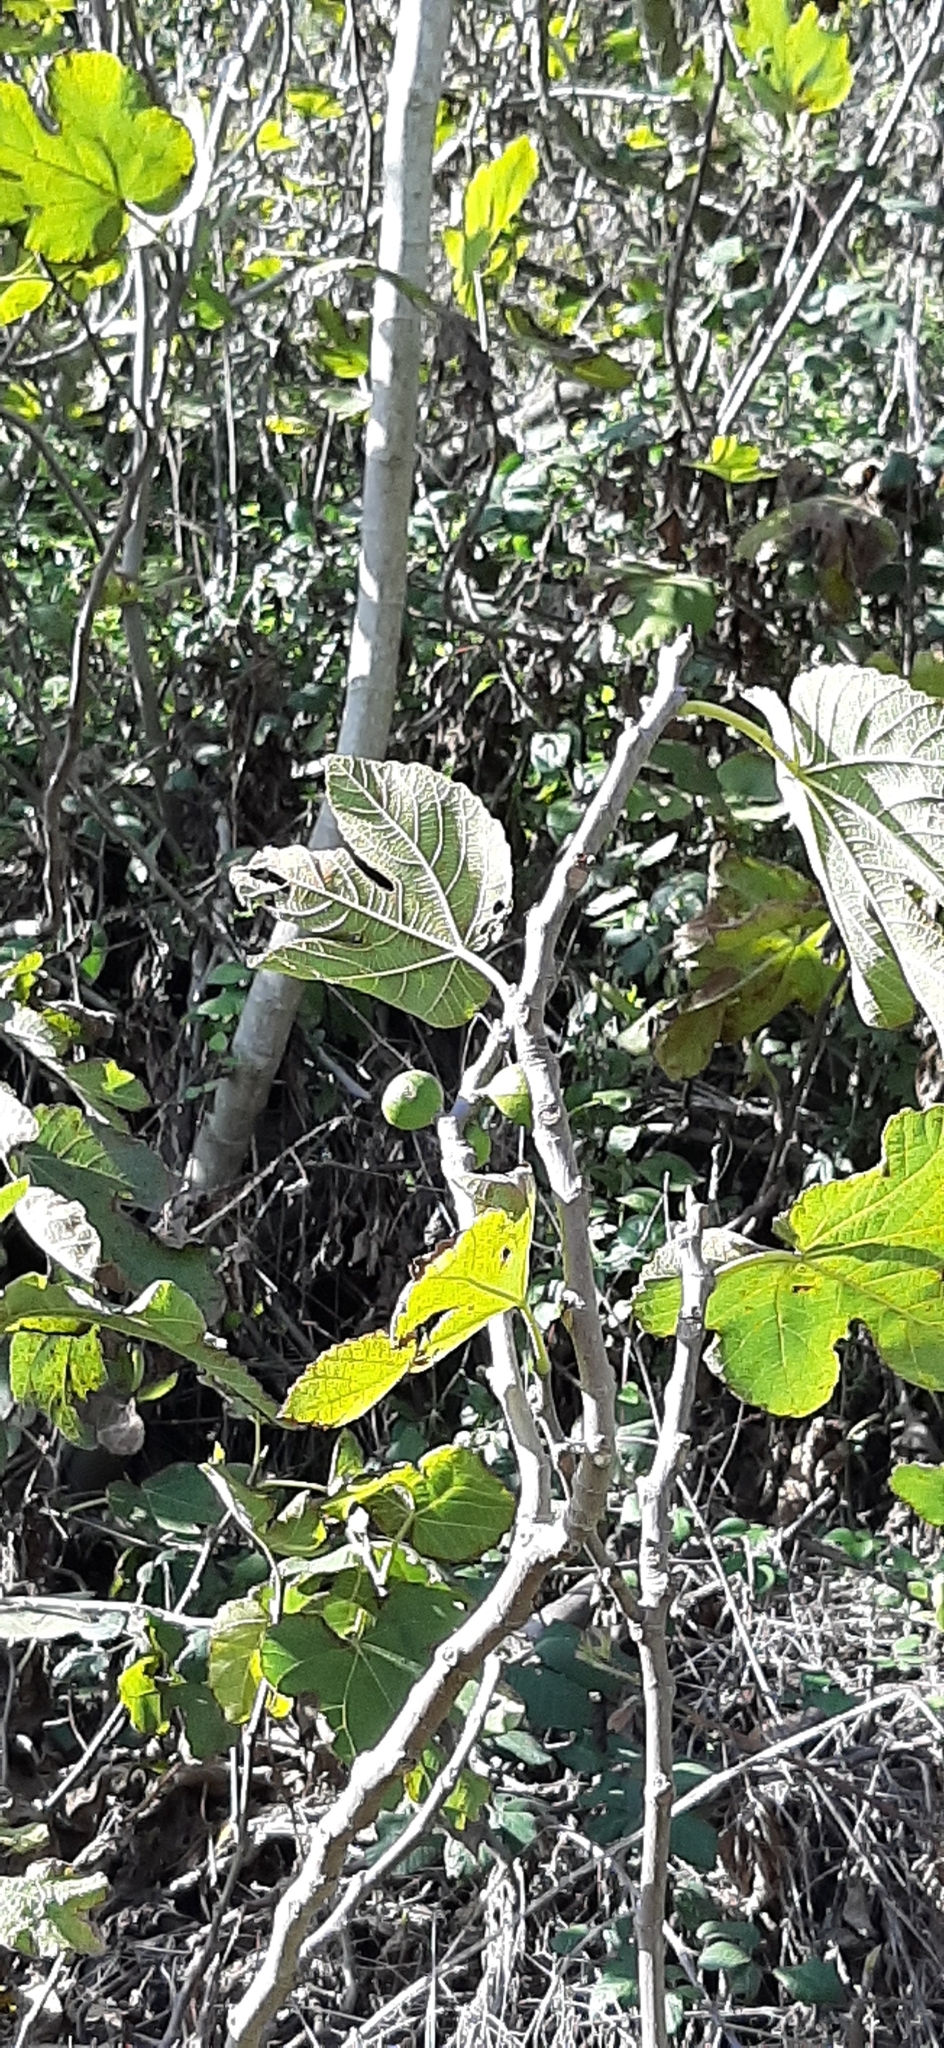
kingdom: Plantae
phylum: Tracheophyta
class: Magnoliopsida
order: Rosales
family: Moraceae
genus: Ficus
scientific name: Ficus carica
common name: Fig
